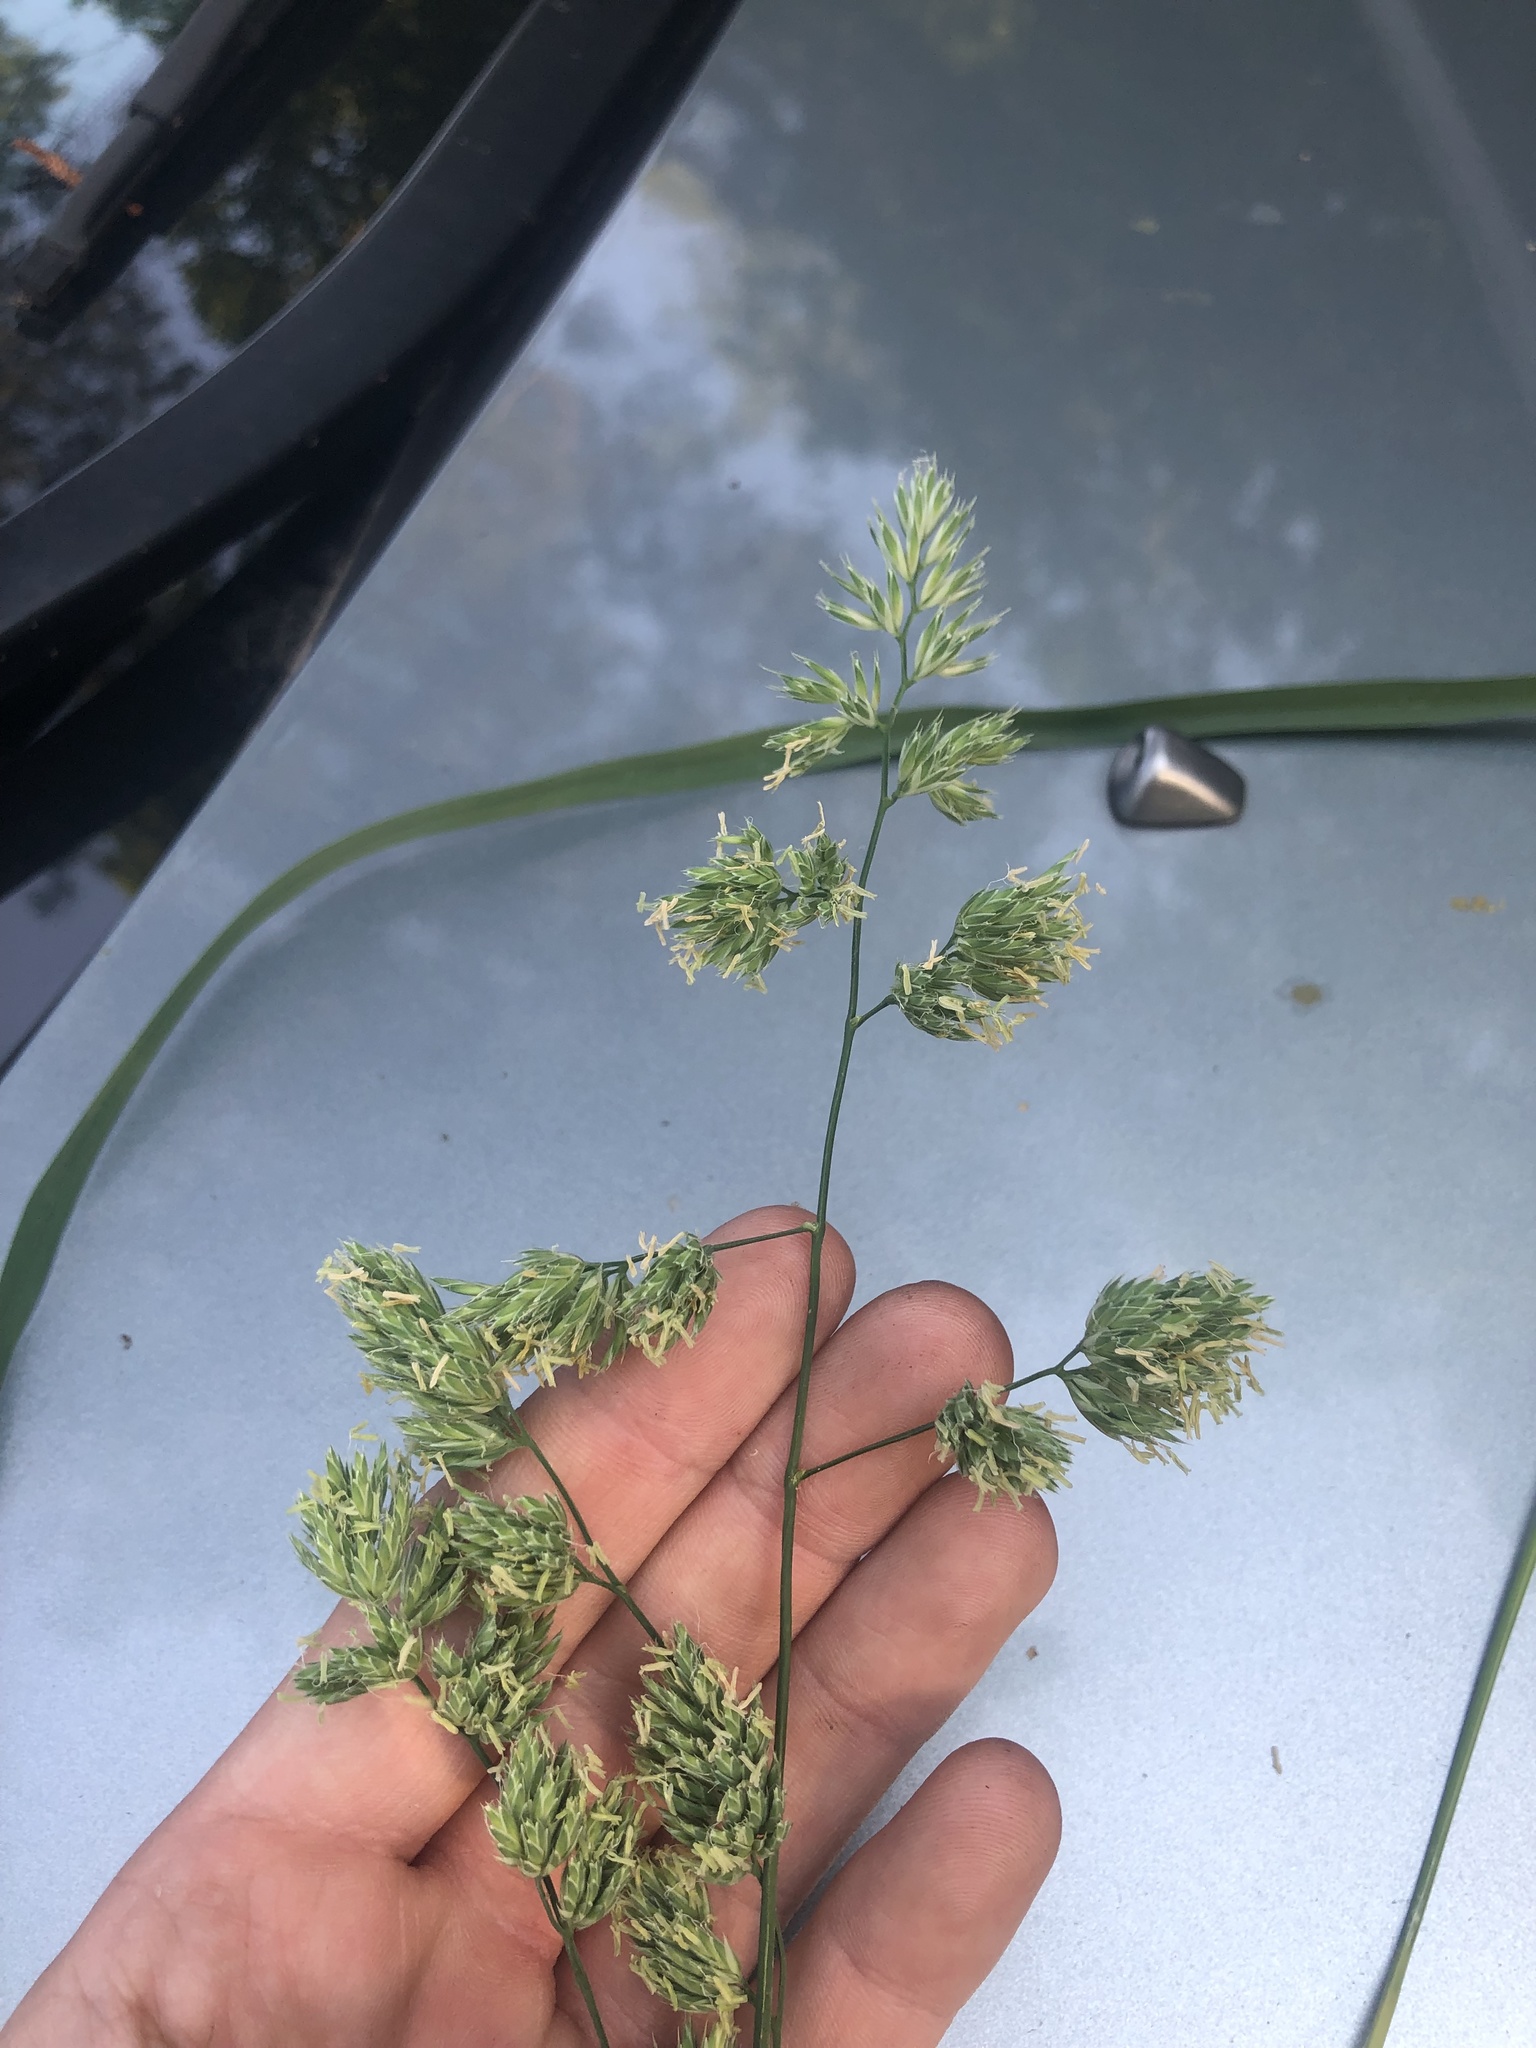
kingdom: Plantae
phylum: Tracheophyta
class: Liliopsida
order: Poales
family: Poaceae
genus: Dactylis
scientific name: Dactylis glomerata
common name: Orchardgrass
